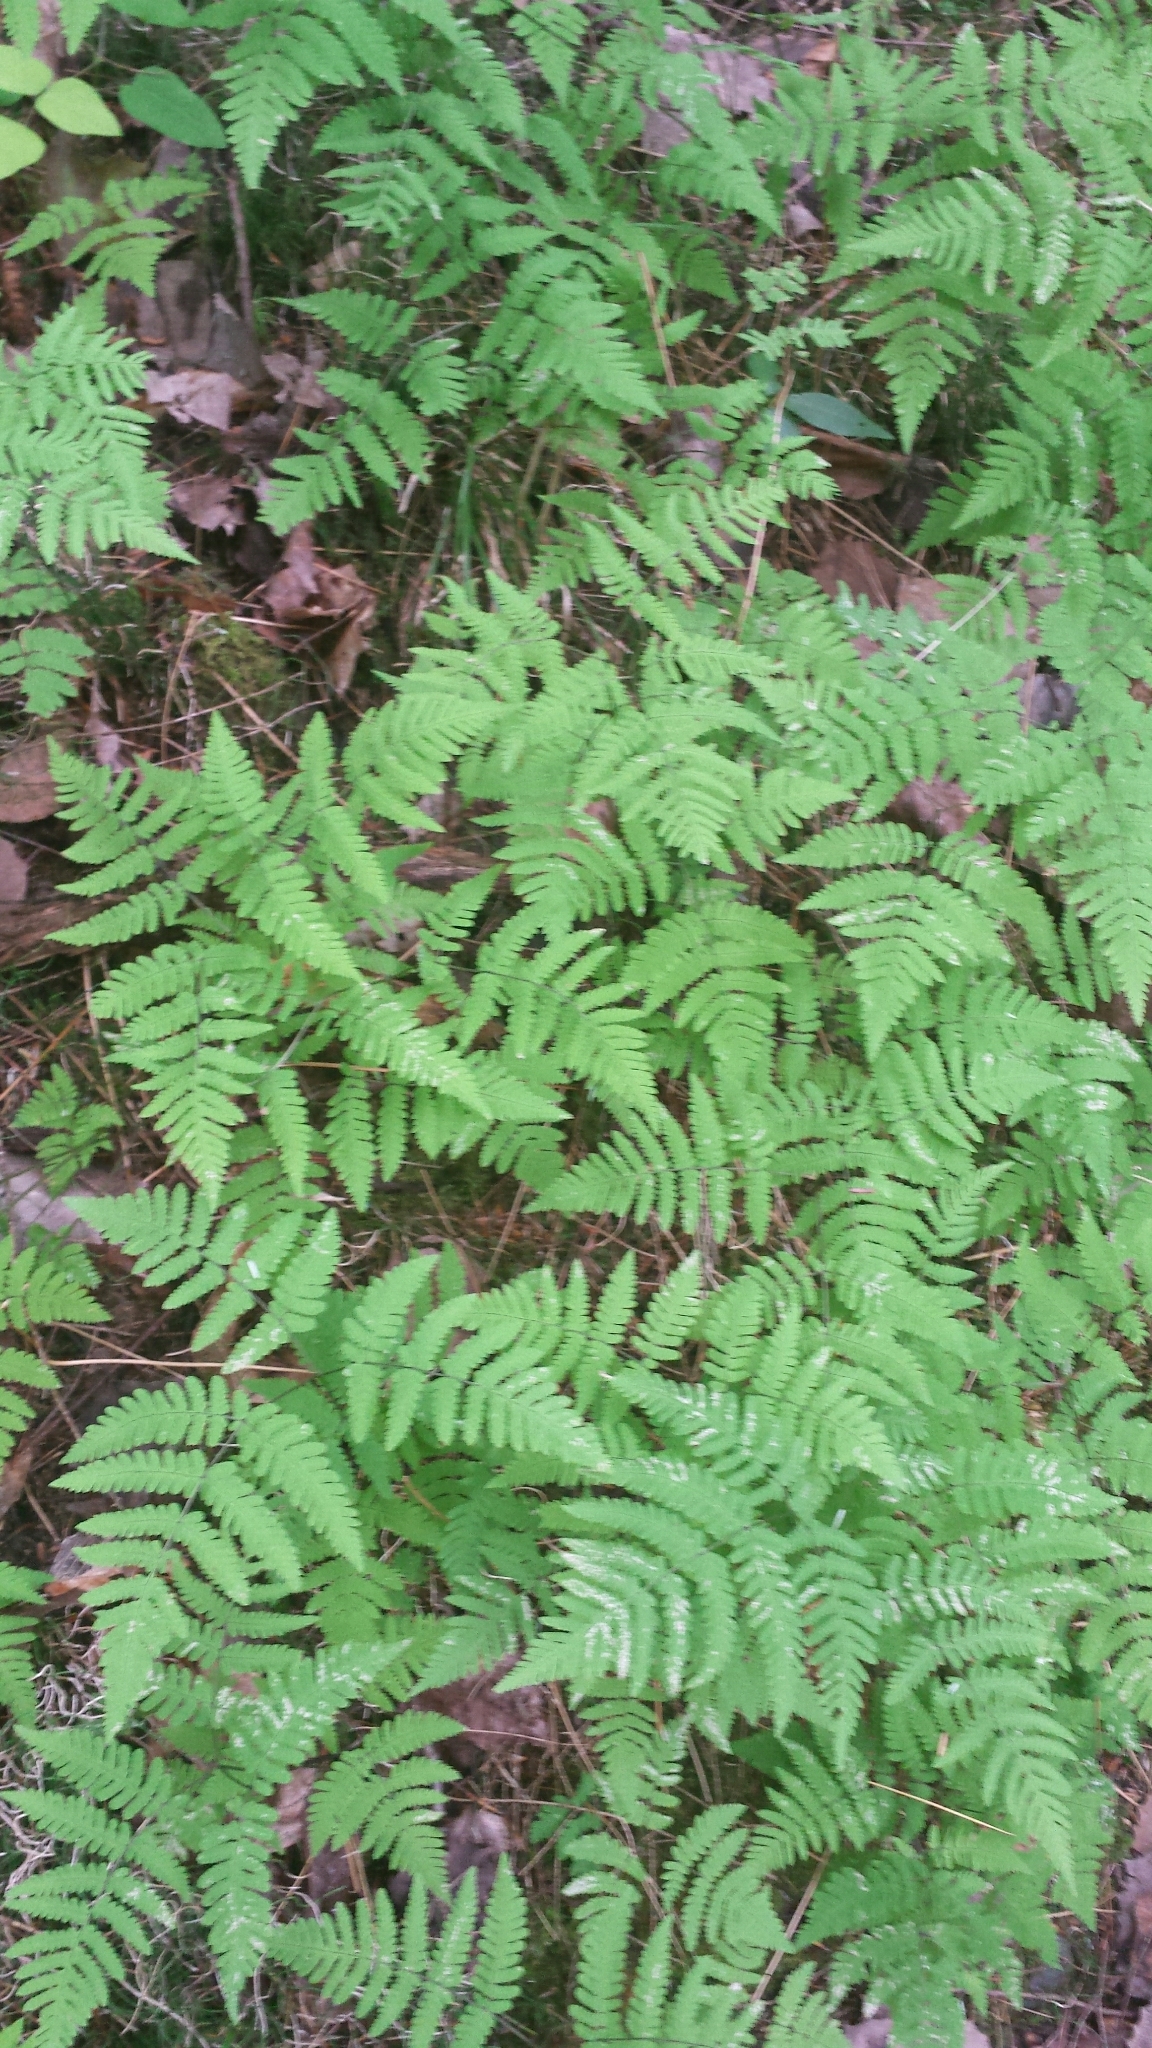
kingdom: Plantae
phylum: Tracheophyta
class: Polypodiopsida
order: Polypodiales
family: Cystopteridaceae
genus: Gymnocarpium
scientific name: Gymnocarpium dryopteris
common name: Oak fern
